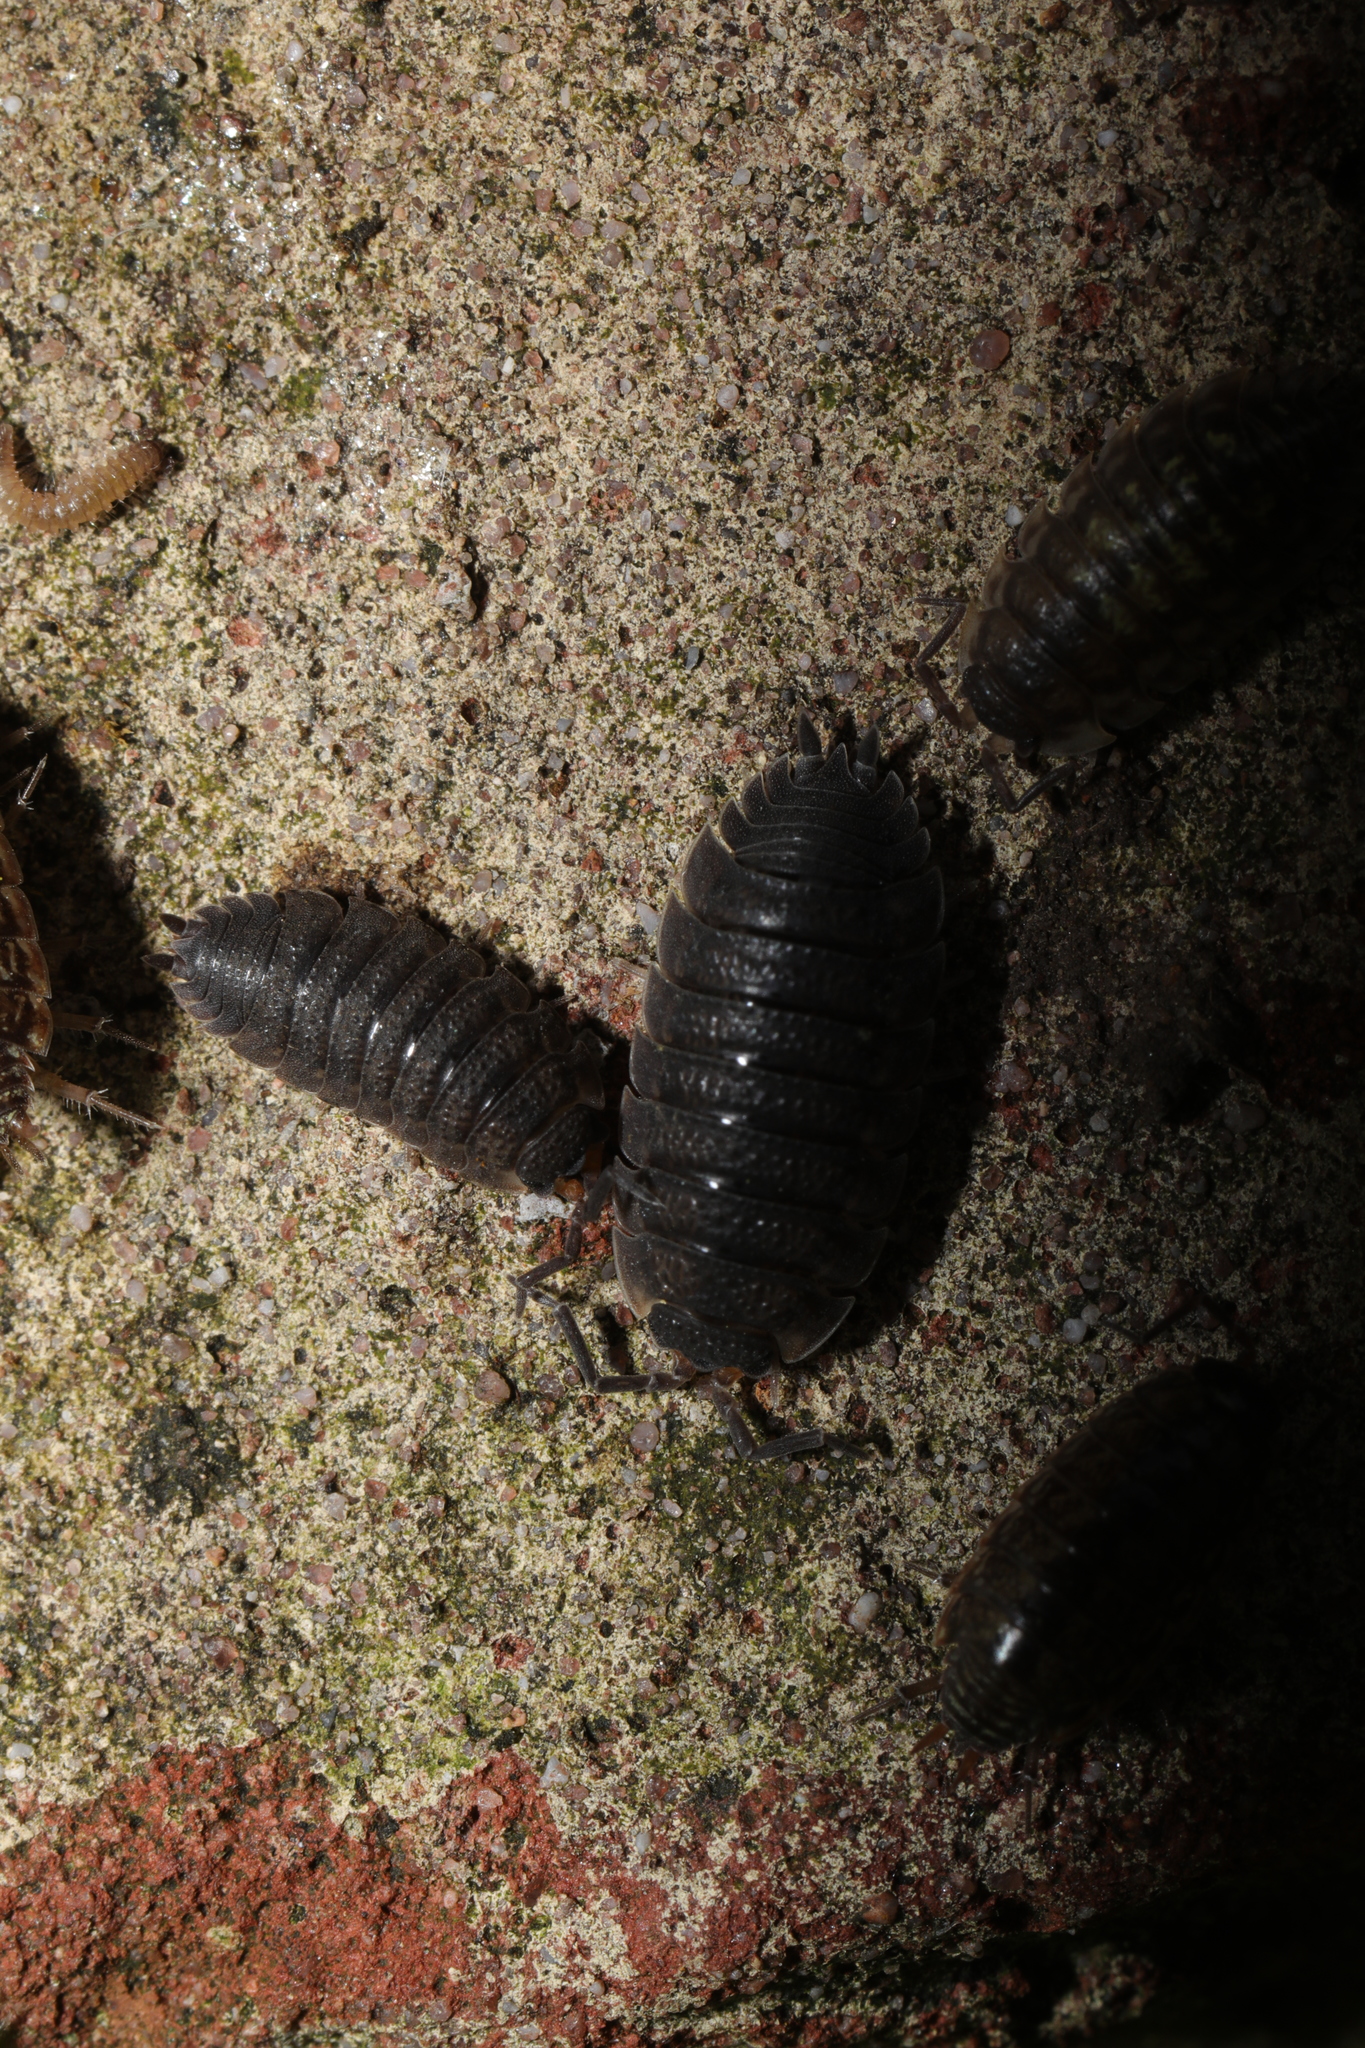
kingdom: Animalia
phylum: Arthropoda
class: Malacostraca
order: Isopoda
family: Porcellionidae
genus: Porcellio
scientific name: Porcellio scaber
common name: Common rough woodlouse
